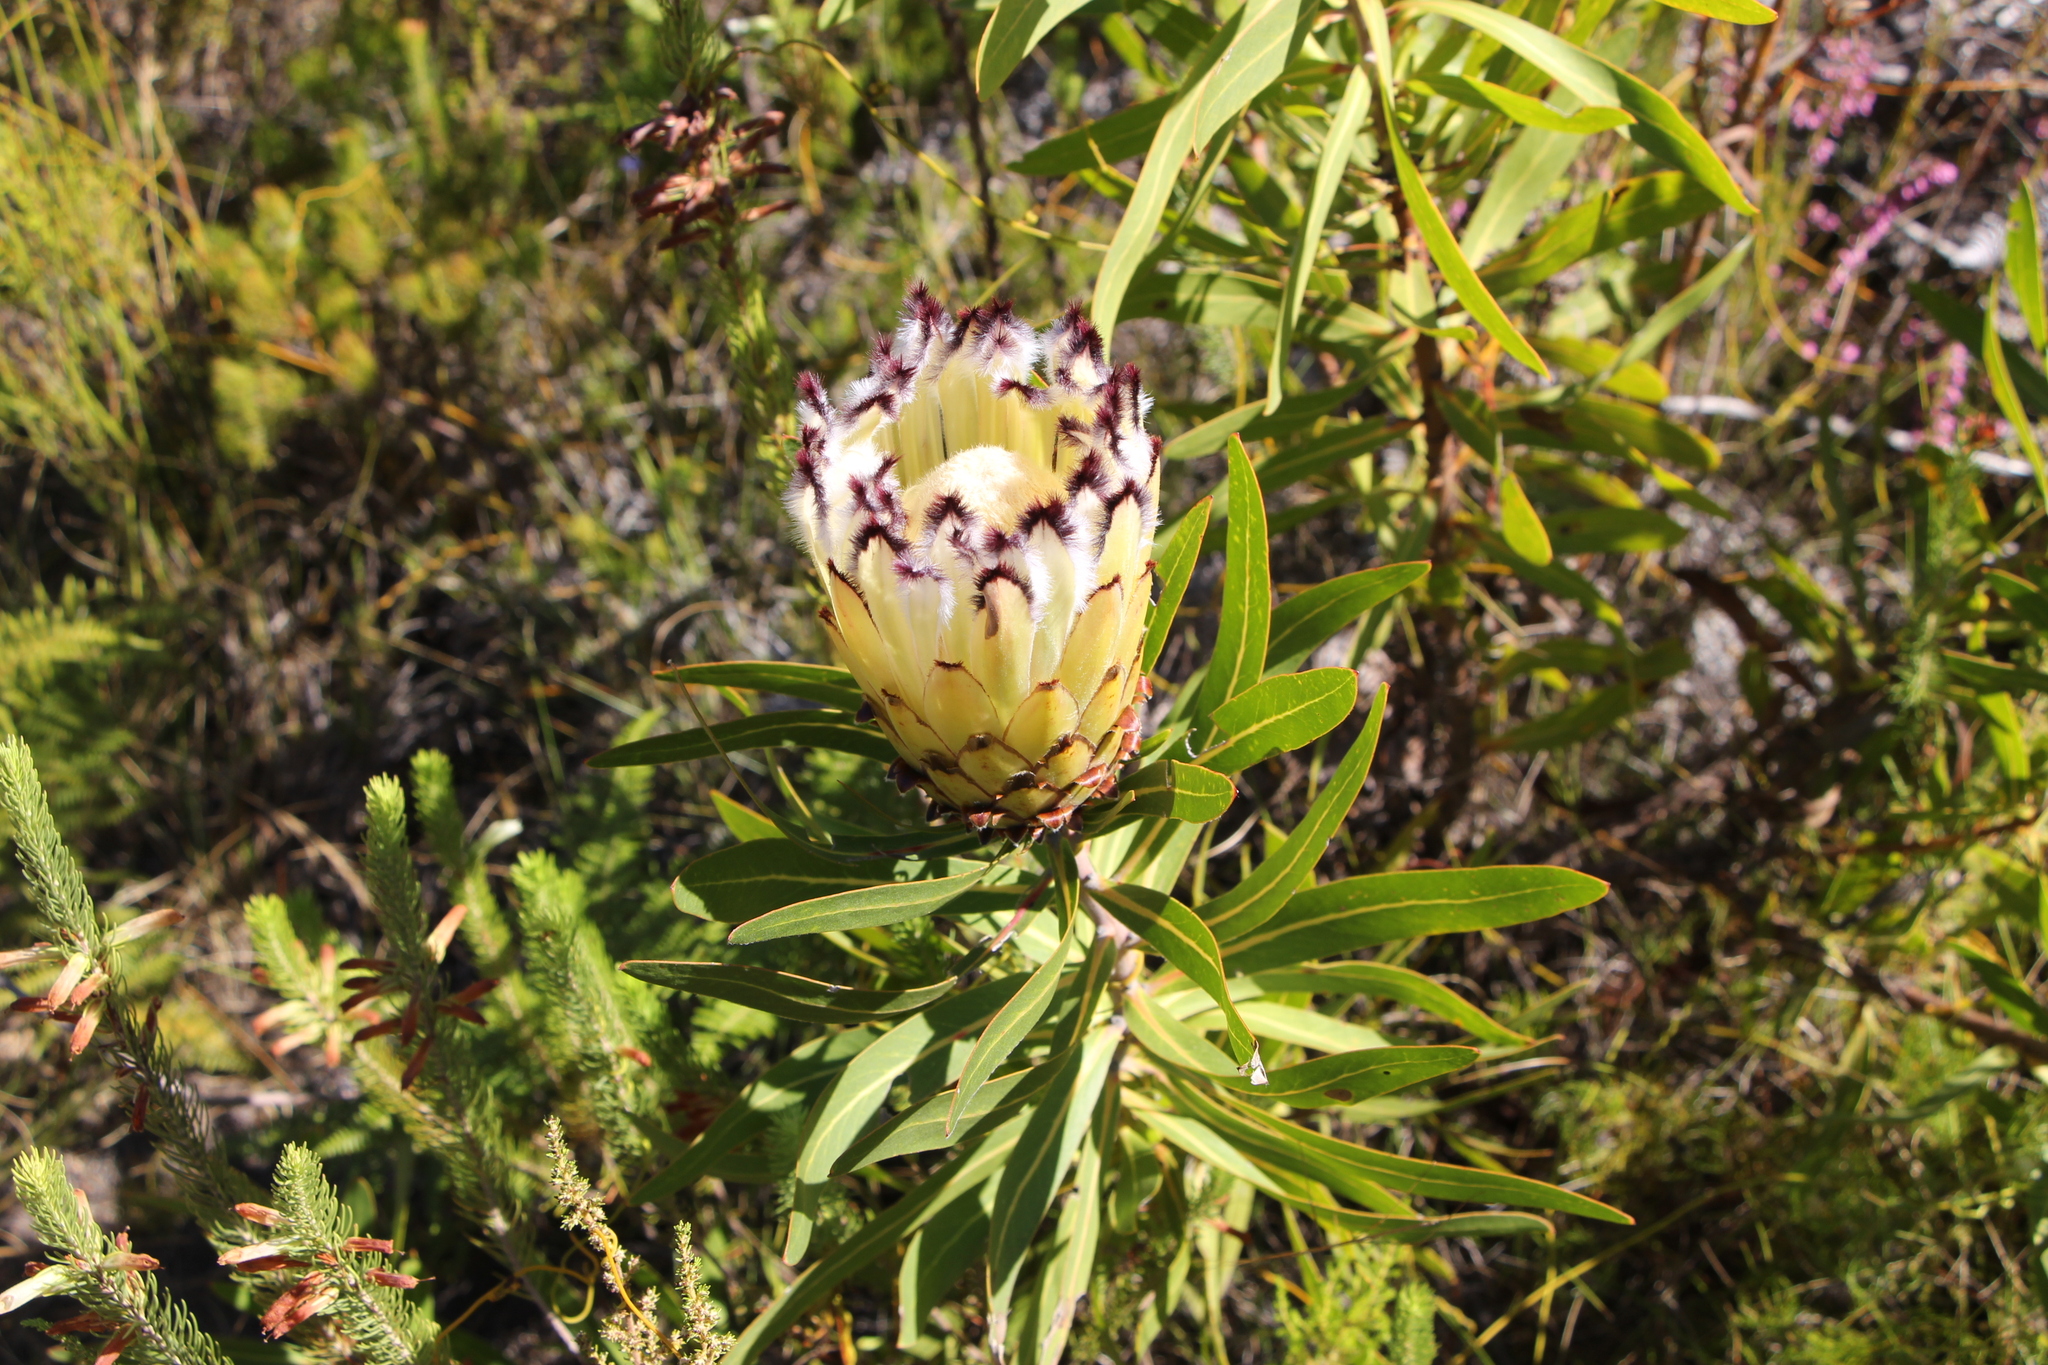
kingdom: Plantae
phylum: Tracheophyta
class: Magnoliopsida
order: Proteales
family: Proteaceae
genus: Protea
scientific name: Protea neriifolia
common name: Blue sugarbush
